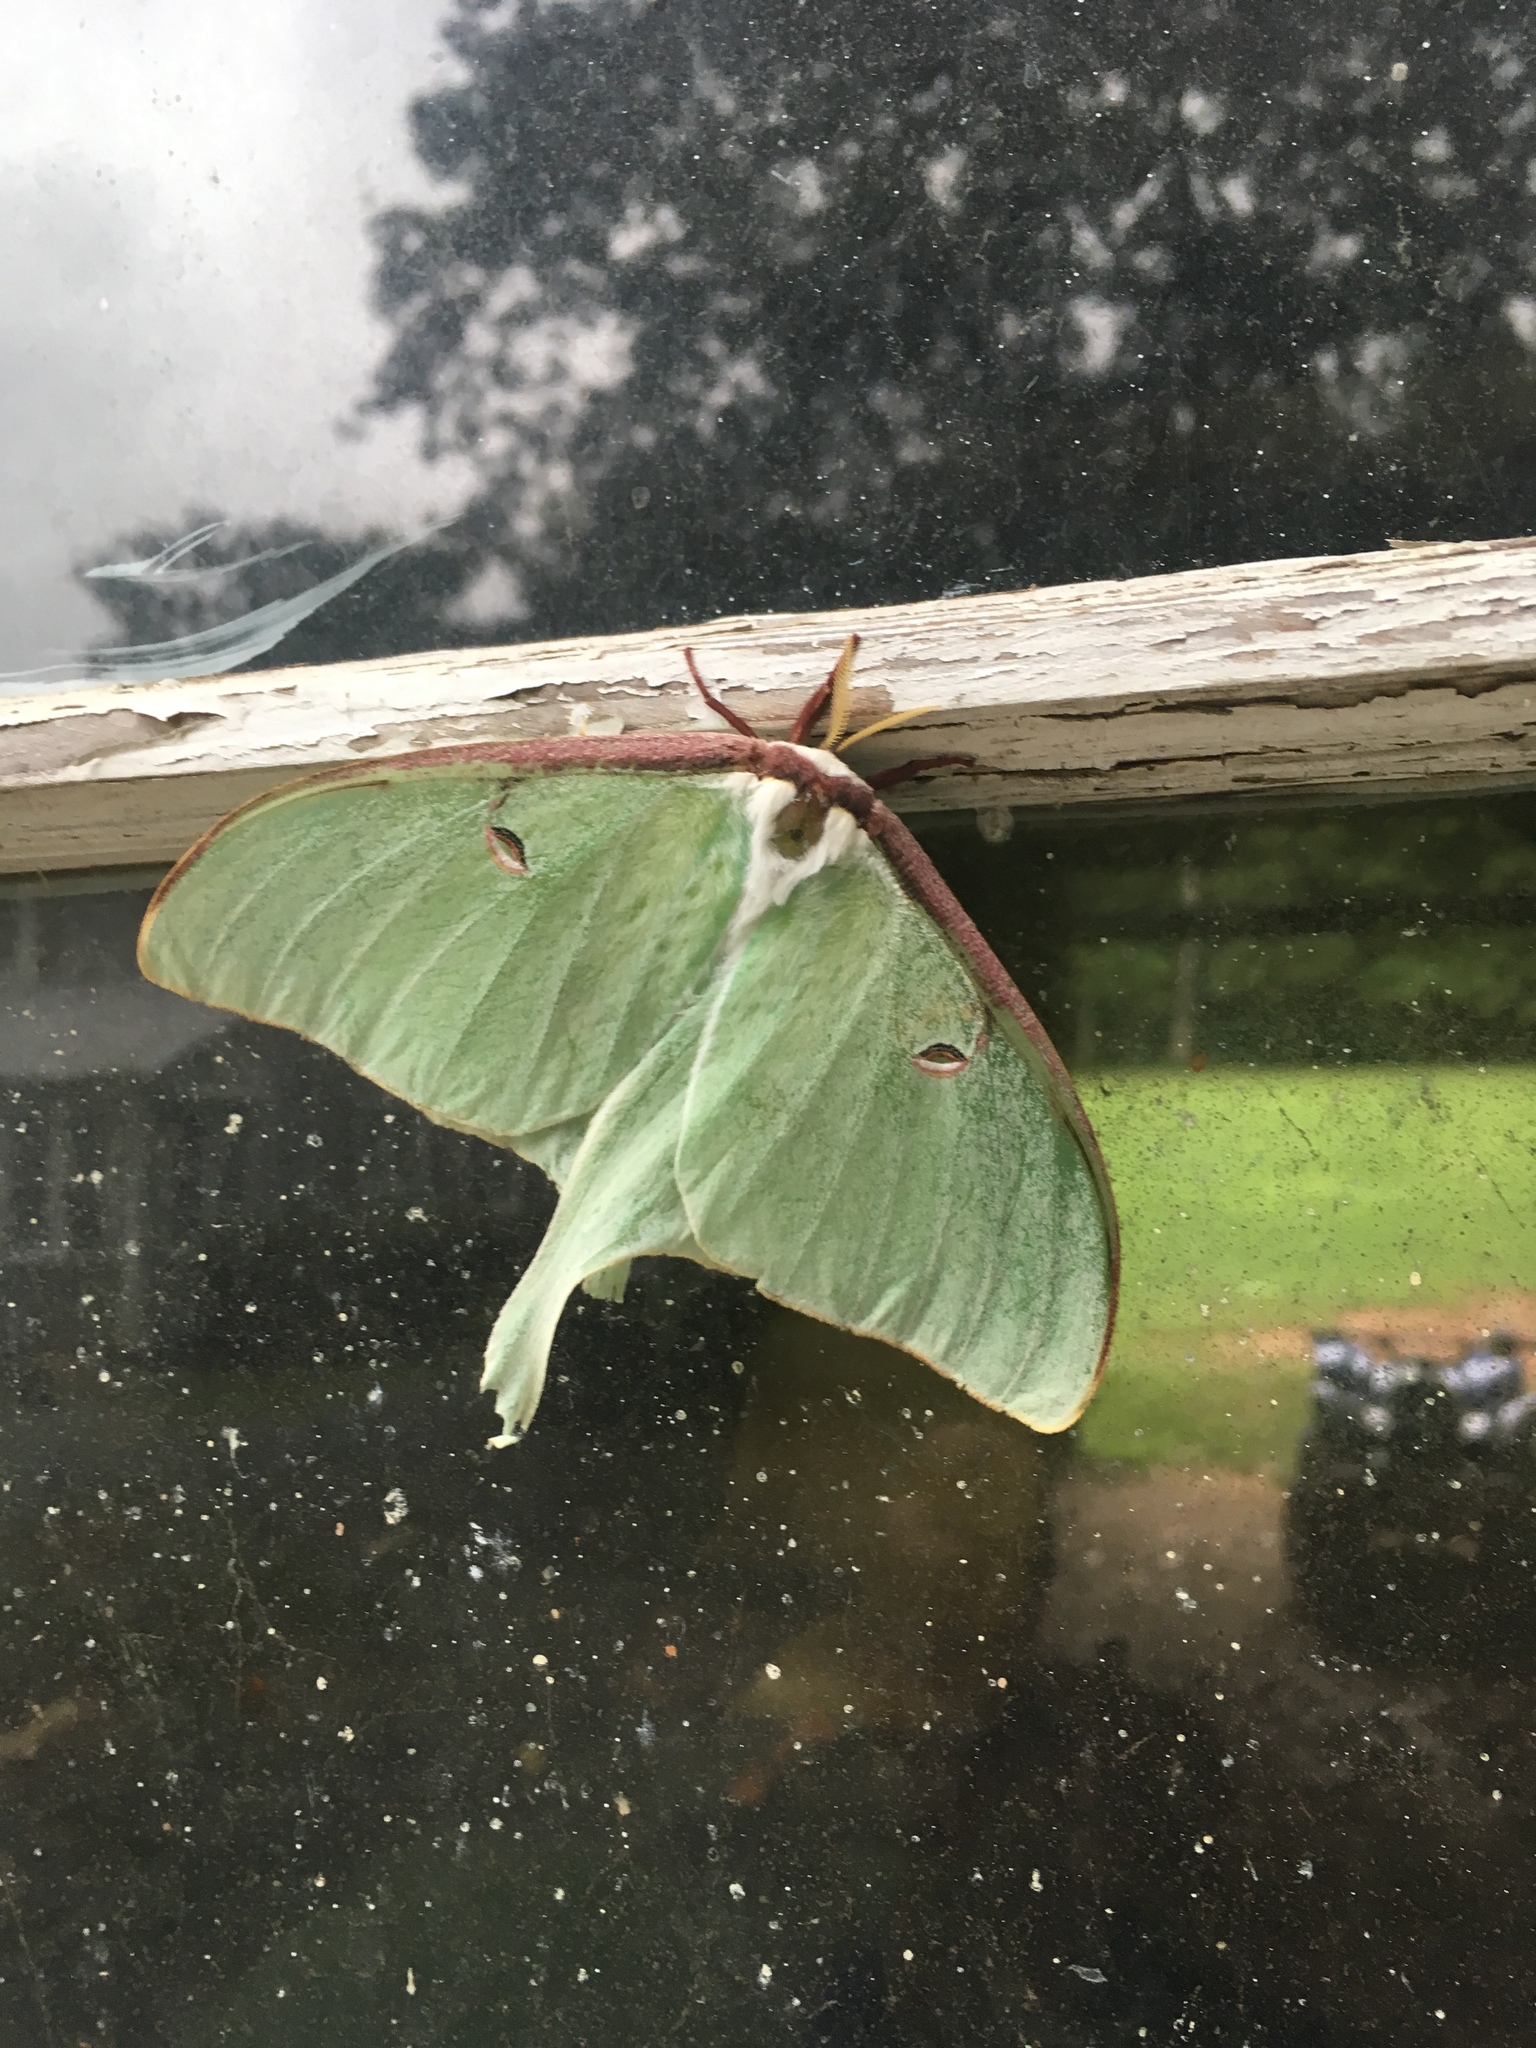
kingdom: Animalia
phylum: Arthropoda
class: Insecta
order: Lepidoptera
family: Saturniidae
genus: Actias
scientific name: Actias luna
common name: Luna moth
